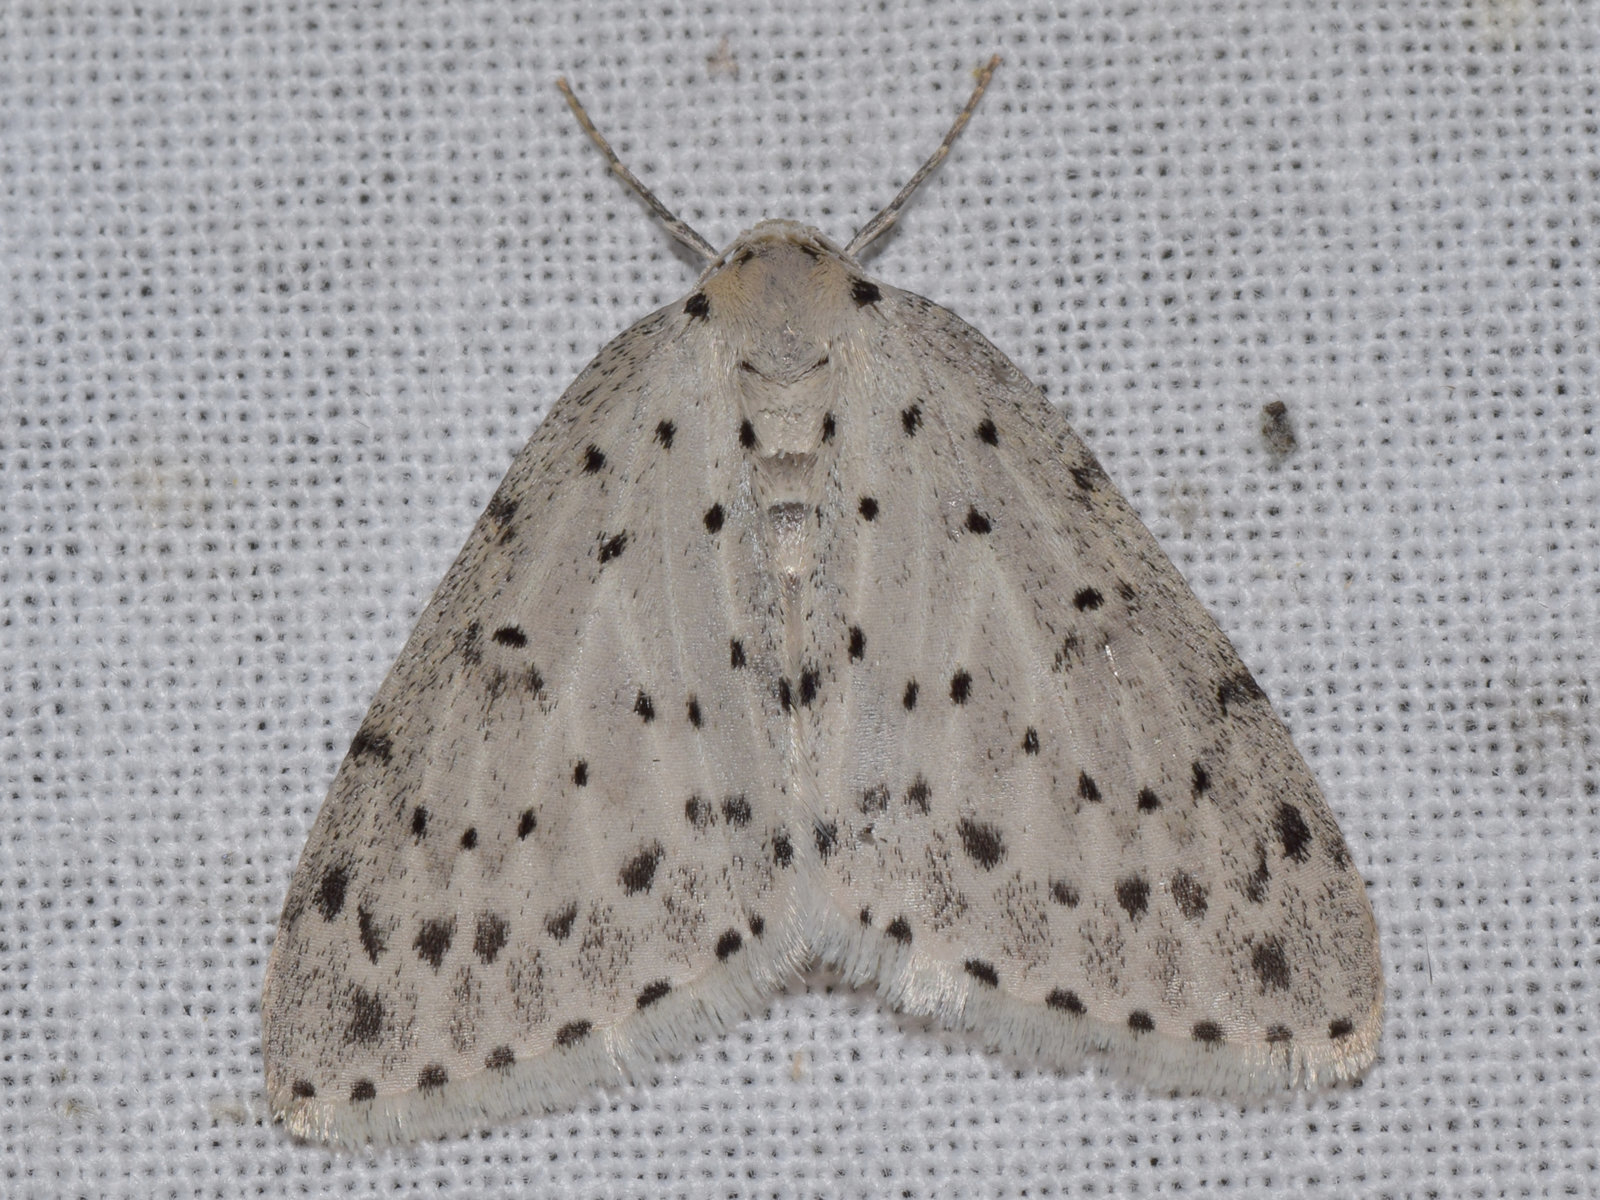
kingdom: Animalia
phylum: Arthropoda
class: Insecta
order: Lepidoptera
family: Geometridae
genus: Naxidia
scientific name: Naxidia punctata
